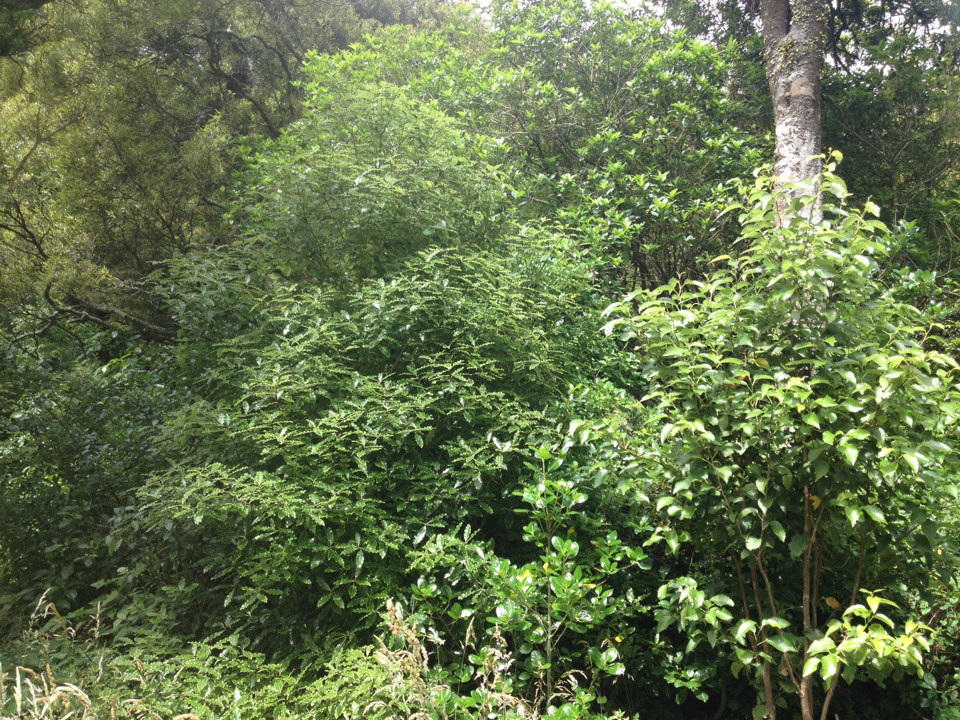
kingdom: Plantae
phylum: Tracheophyta
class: Magnoliopsida
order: Apiales
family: Pittosporaceae
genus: Pittosporum
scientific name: Pittosporum eugenioides
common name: Lemonwood
